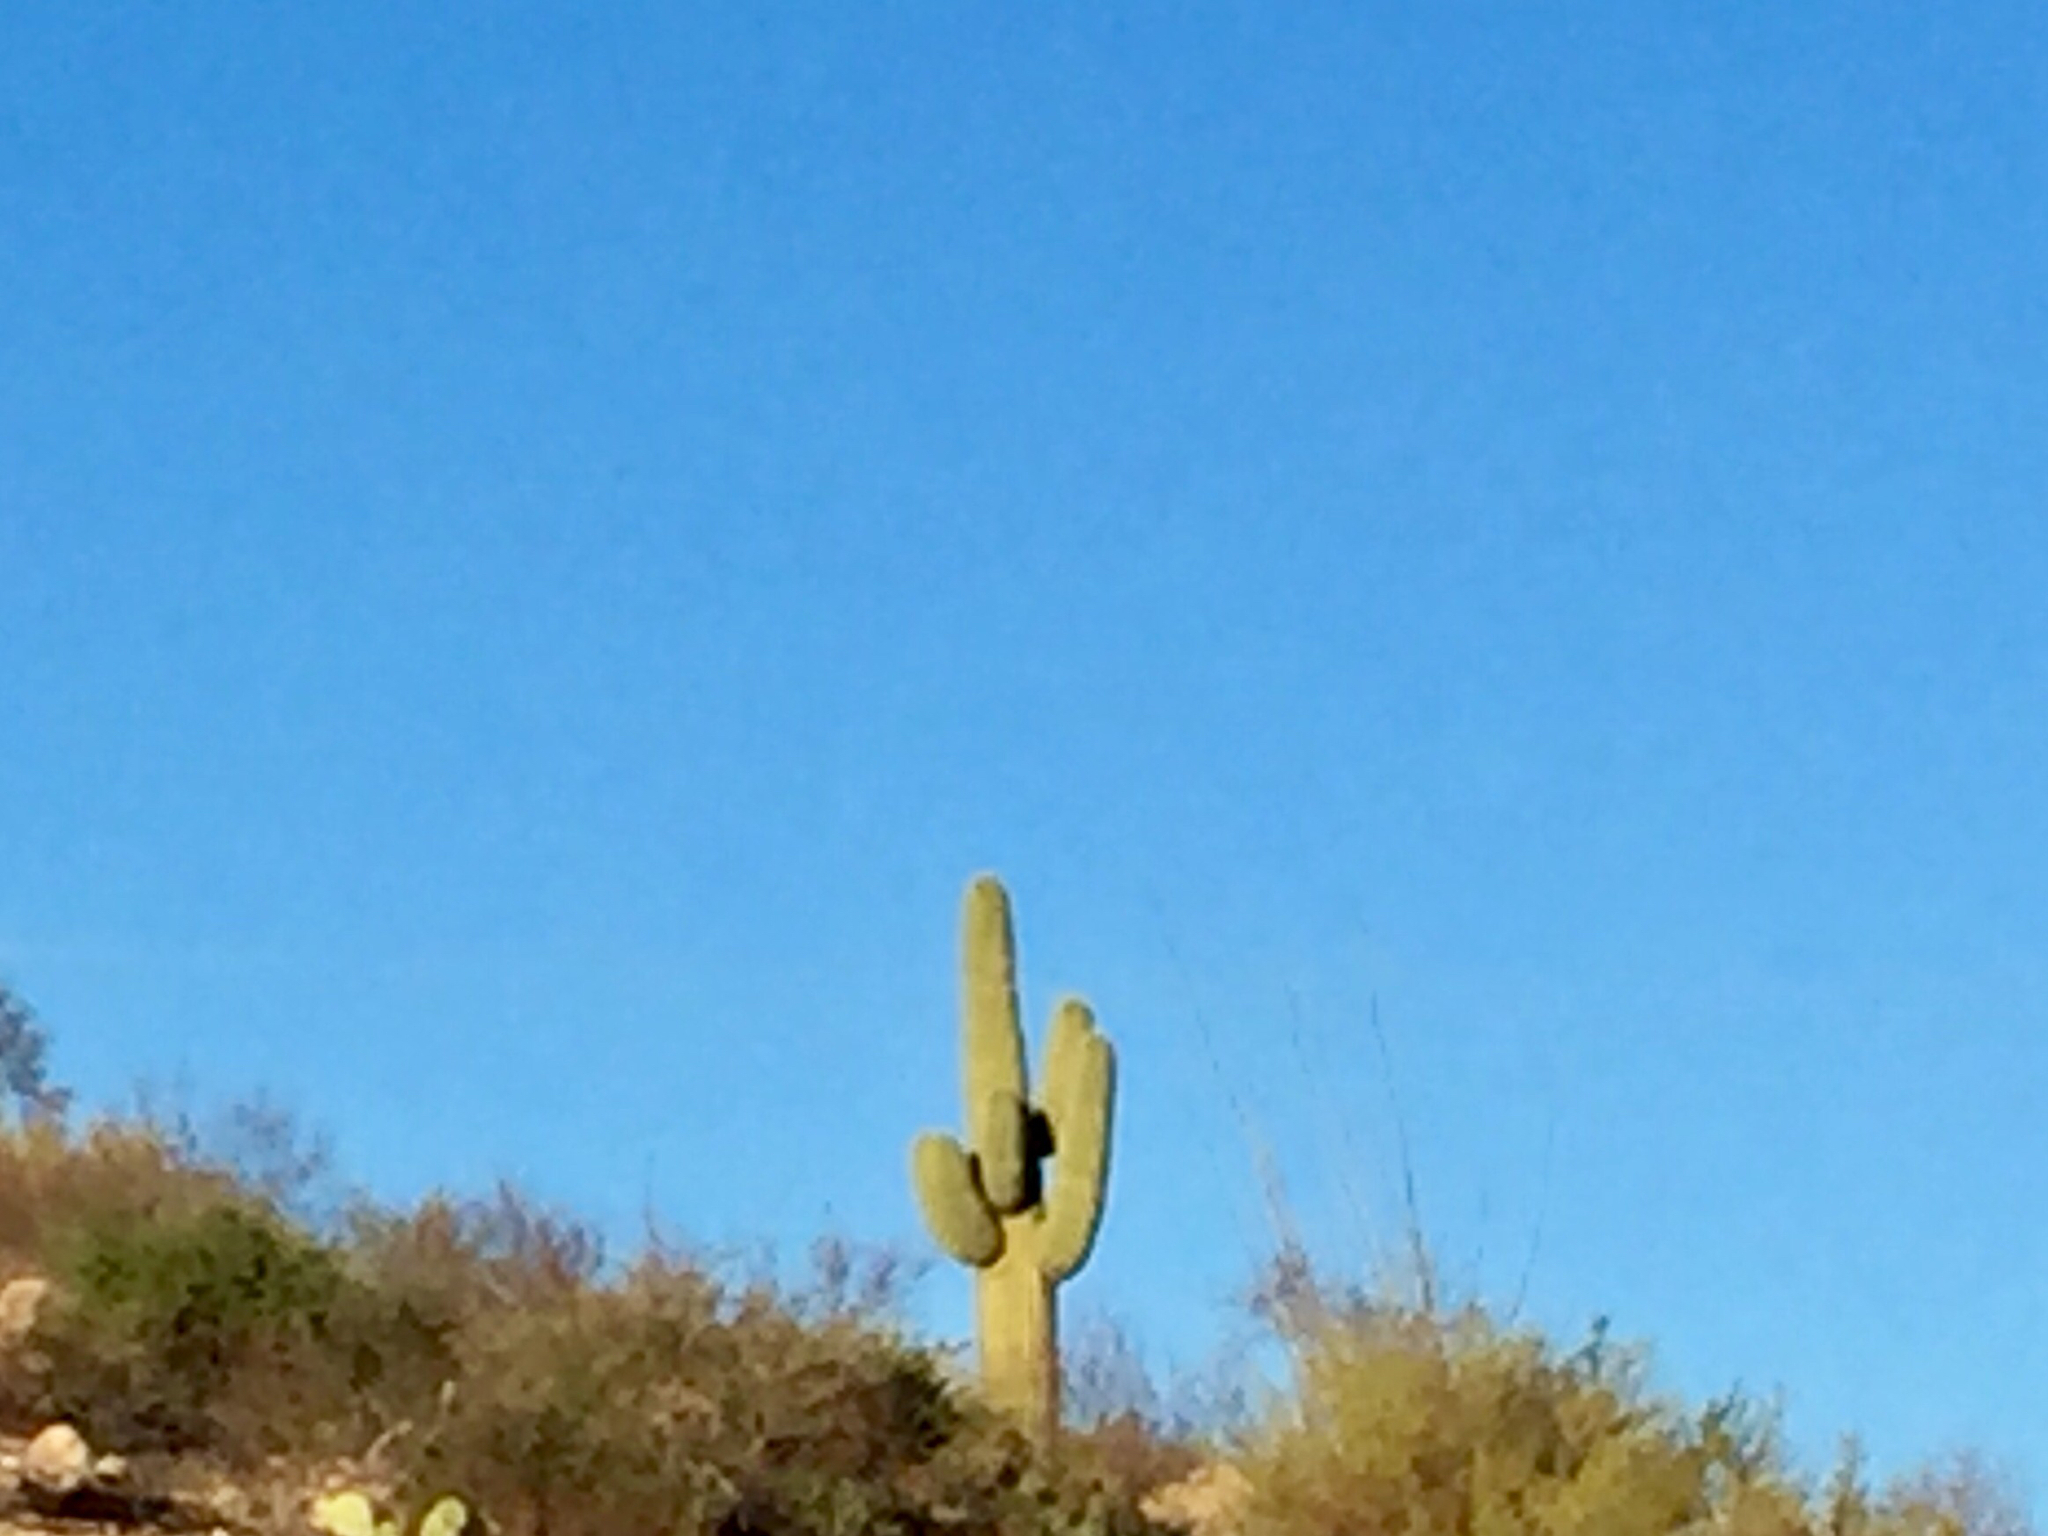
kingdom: Plantae
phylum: Tracheophyta
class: Magnoliopsida
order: Caryophyllales
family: Cactaceae
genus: Carnegiea
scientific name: Carnegiea gigantea
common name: Saguaro
